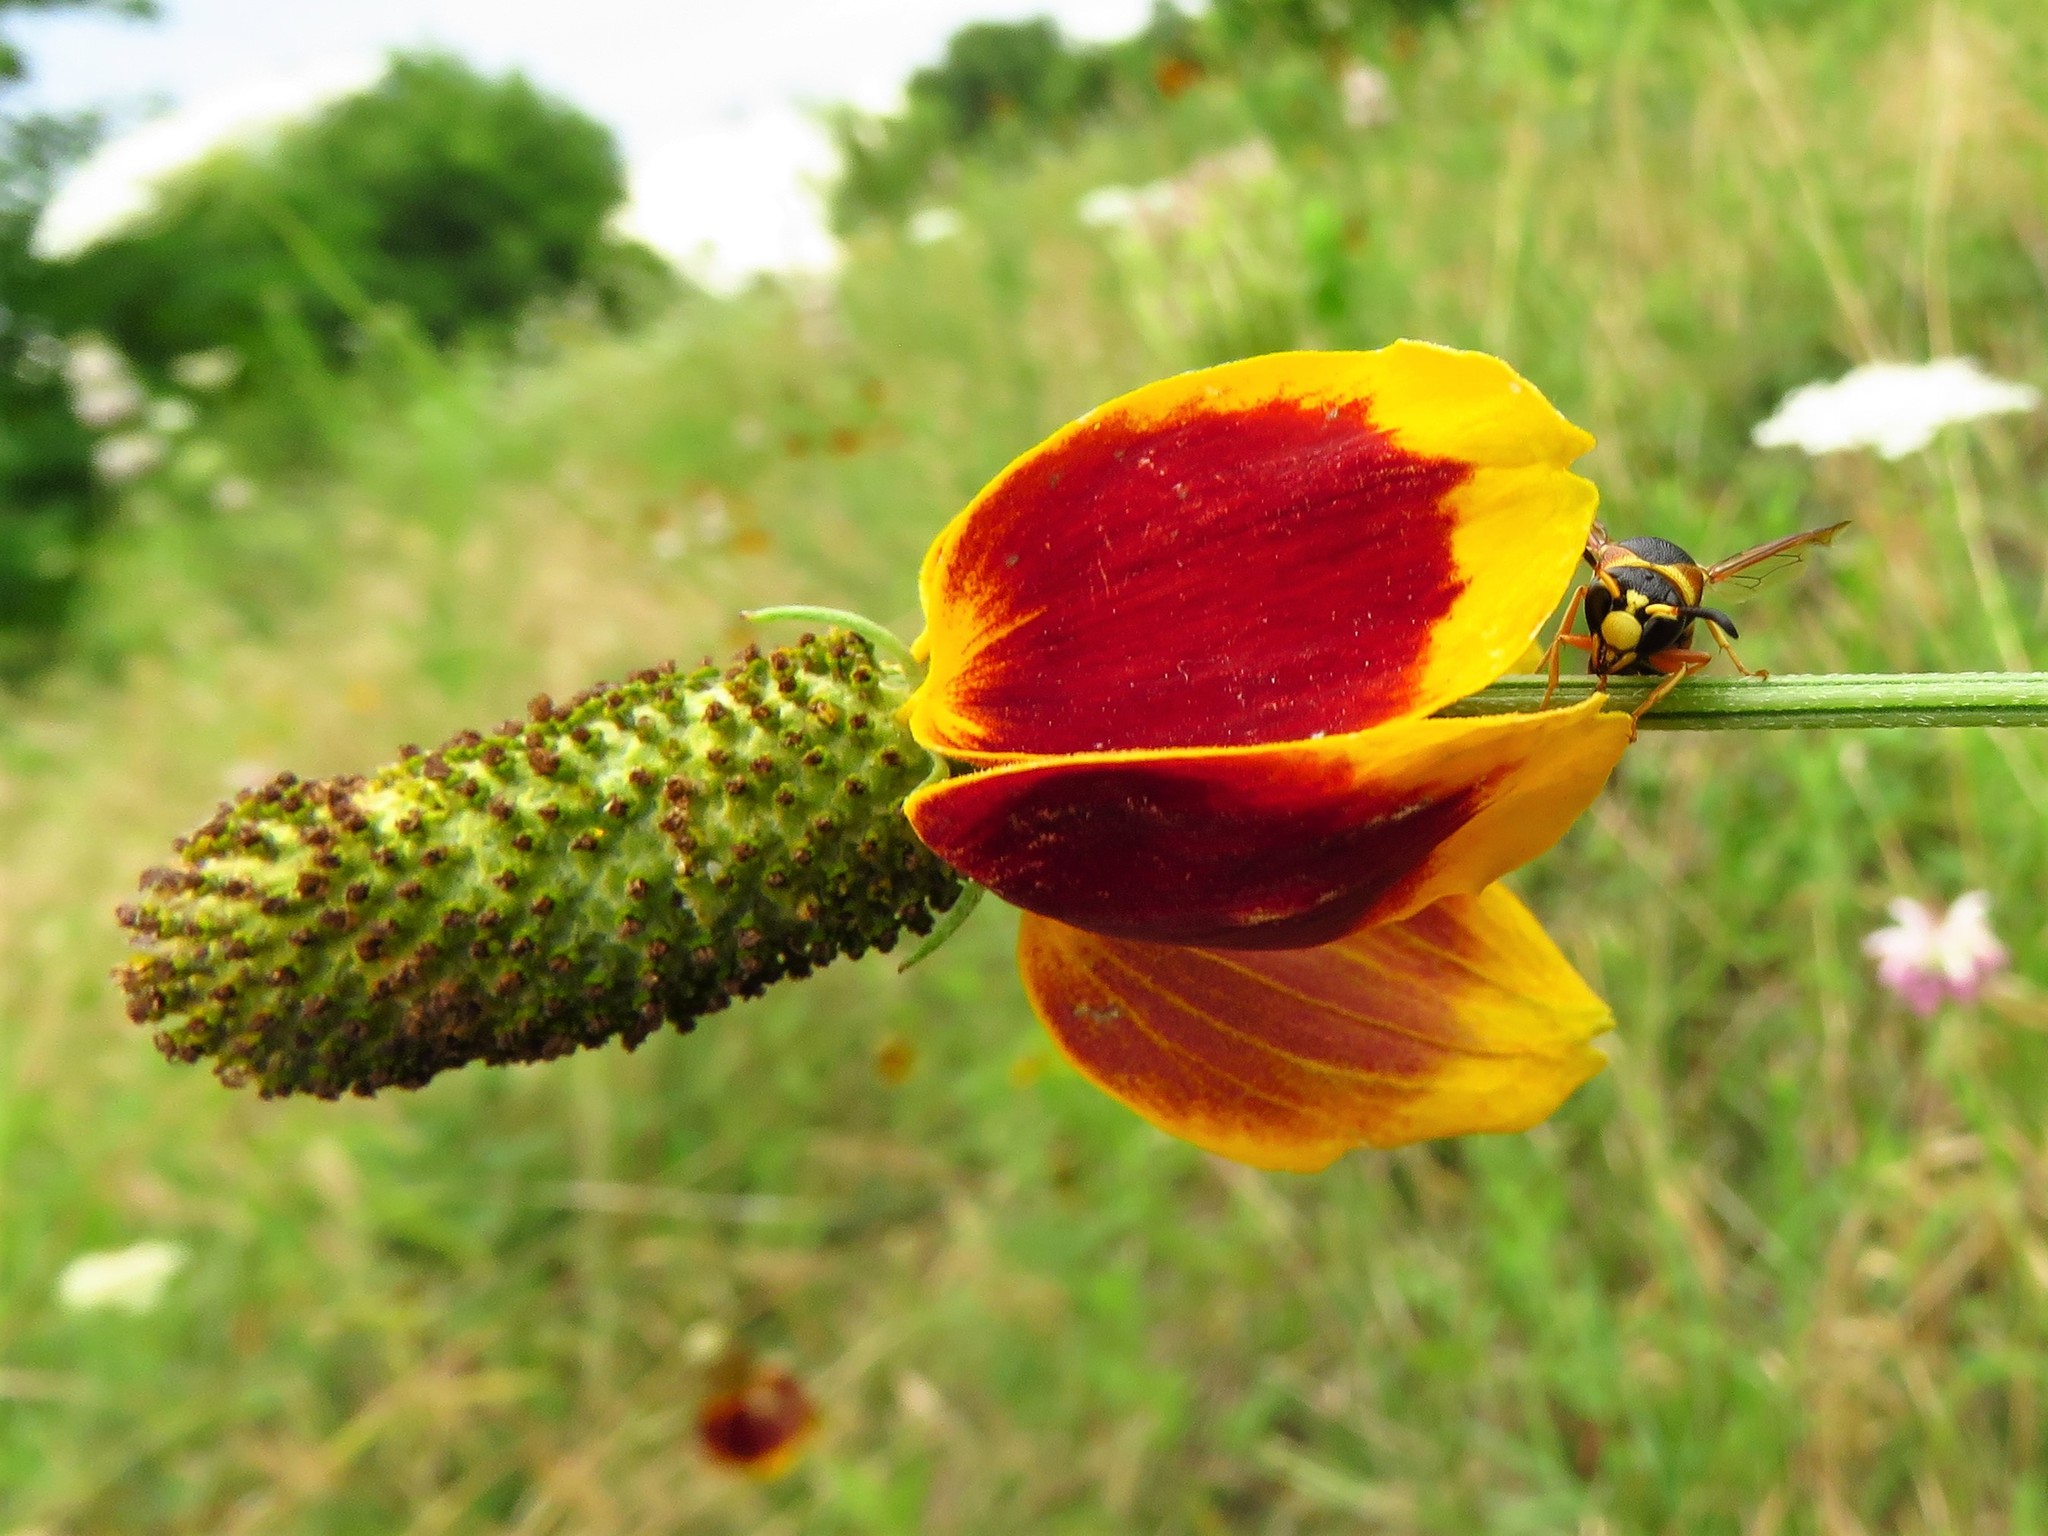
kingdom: Plantae
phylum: Tracheophyta
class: Magnoliopsida
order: Asterales
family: Asteraceae
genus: Ratibida
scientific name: Ratibida columnifera
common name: Prairie coneflower
